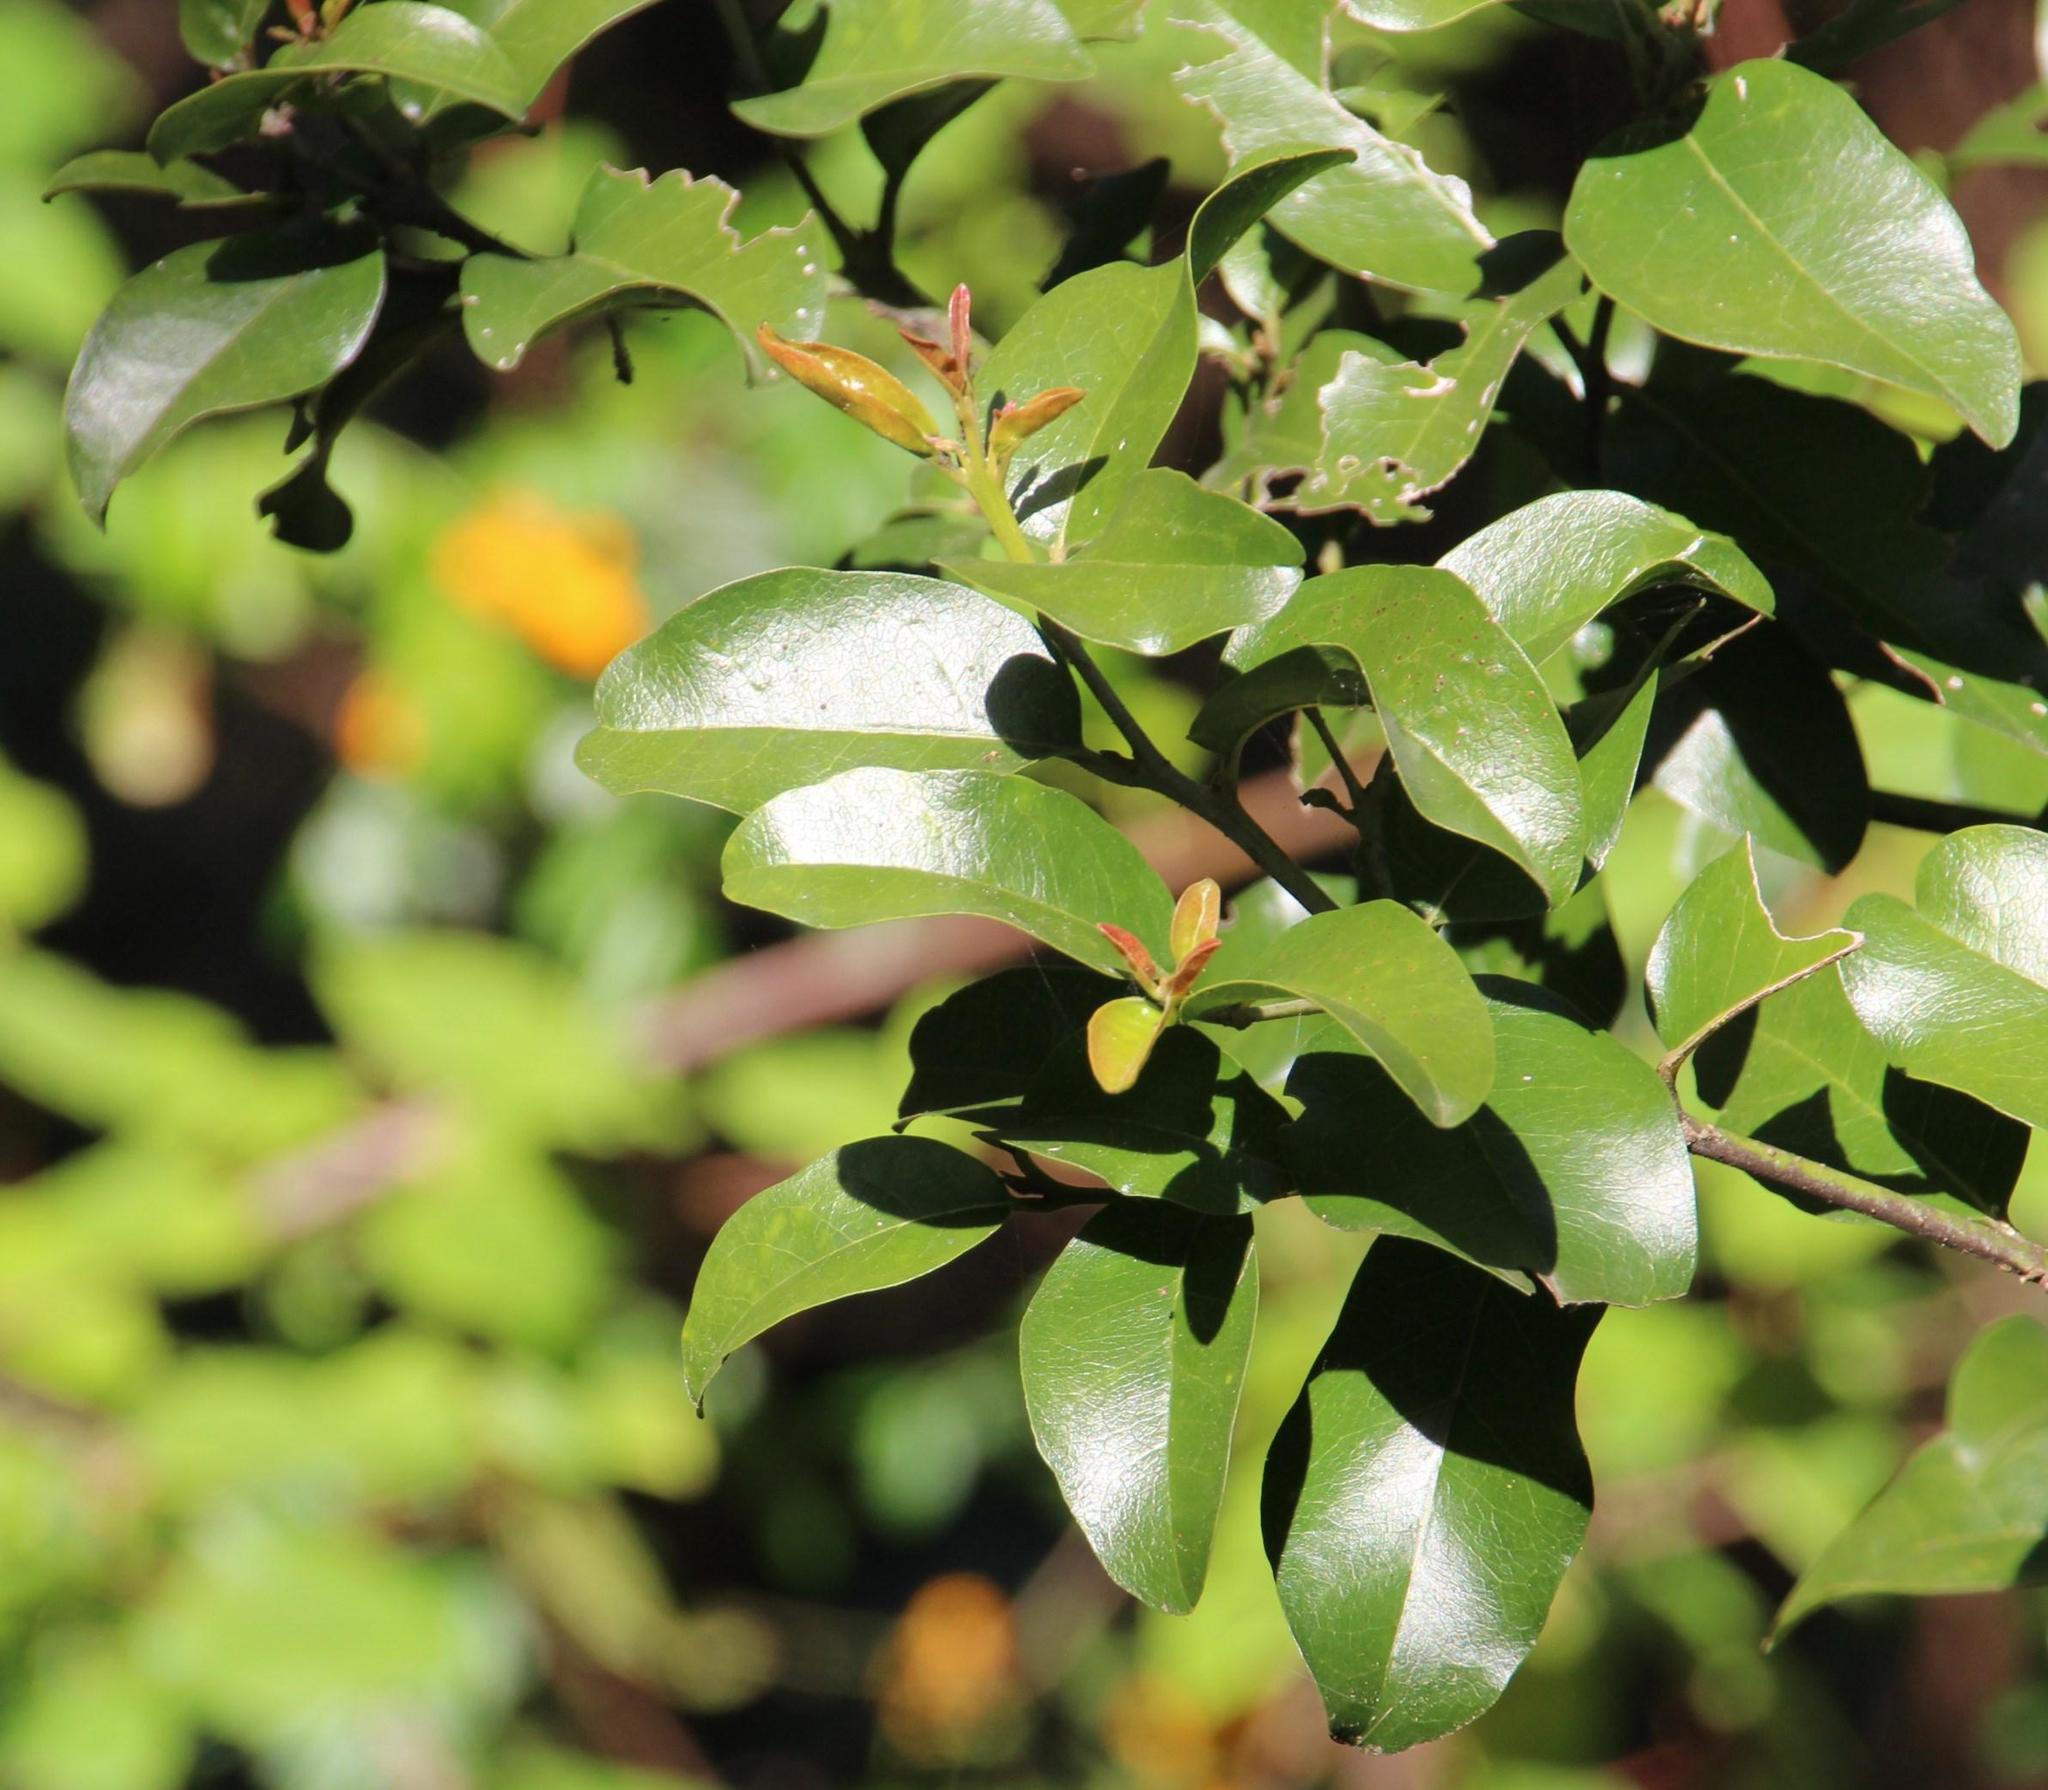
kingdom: Plantae
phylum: Tracheophyta
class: Magnoliopsida
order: Laurales
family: Lauraceae
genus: Cryptocarya
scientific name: Cryptocarya alba
